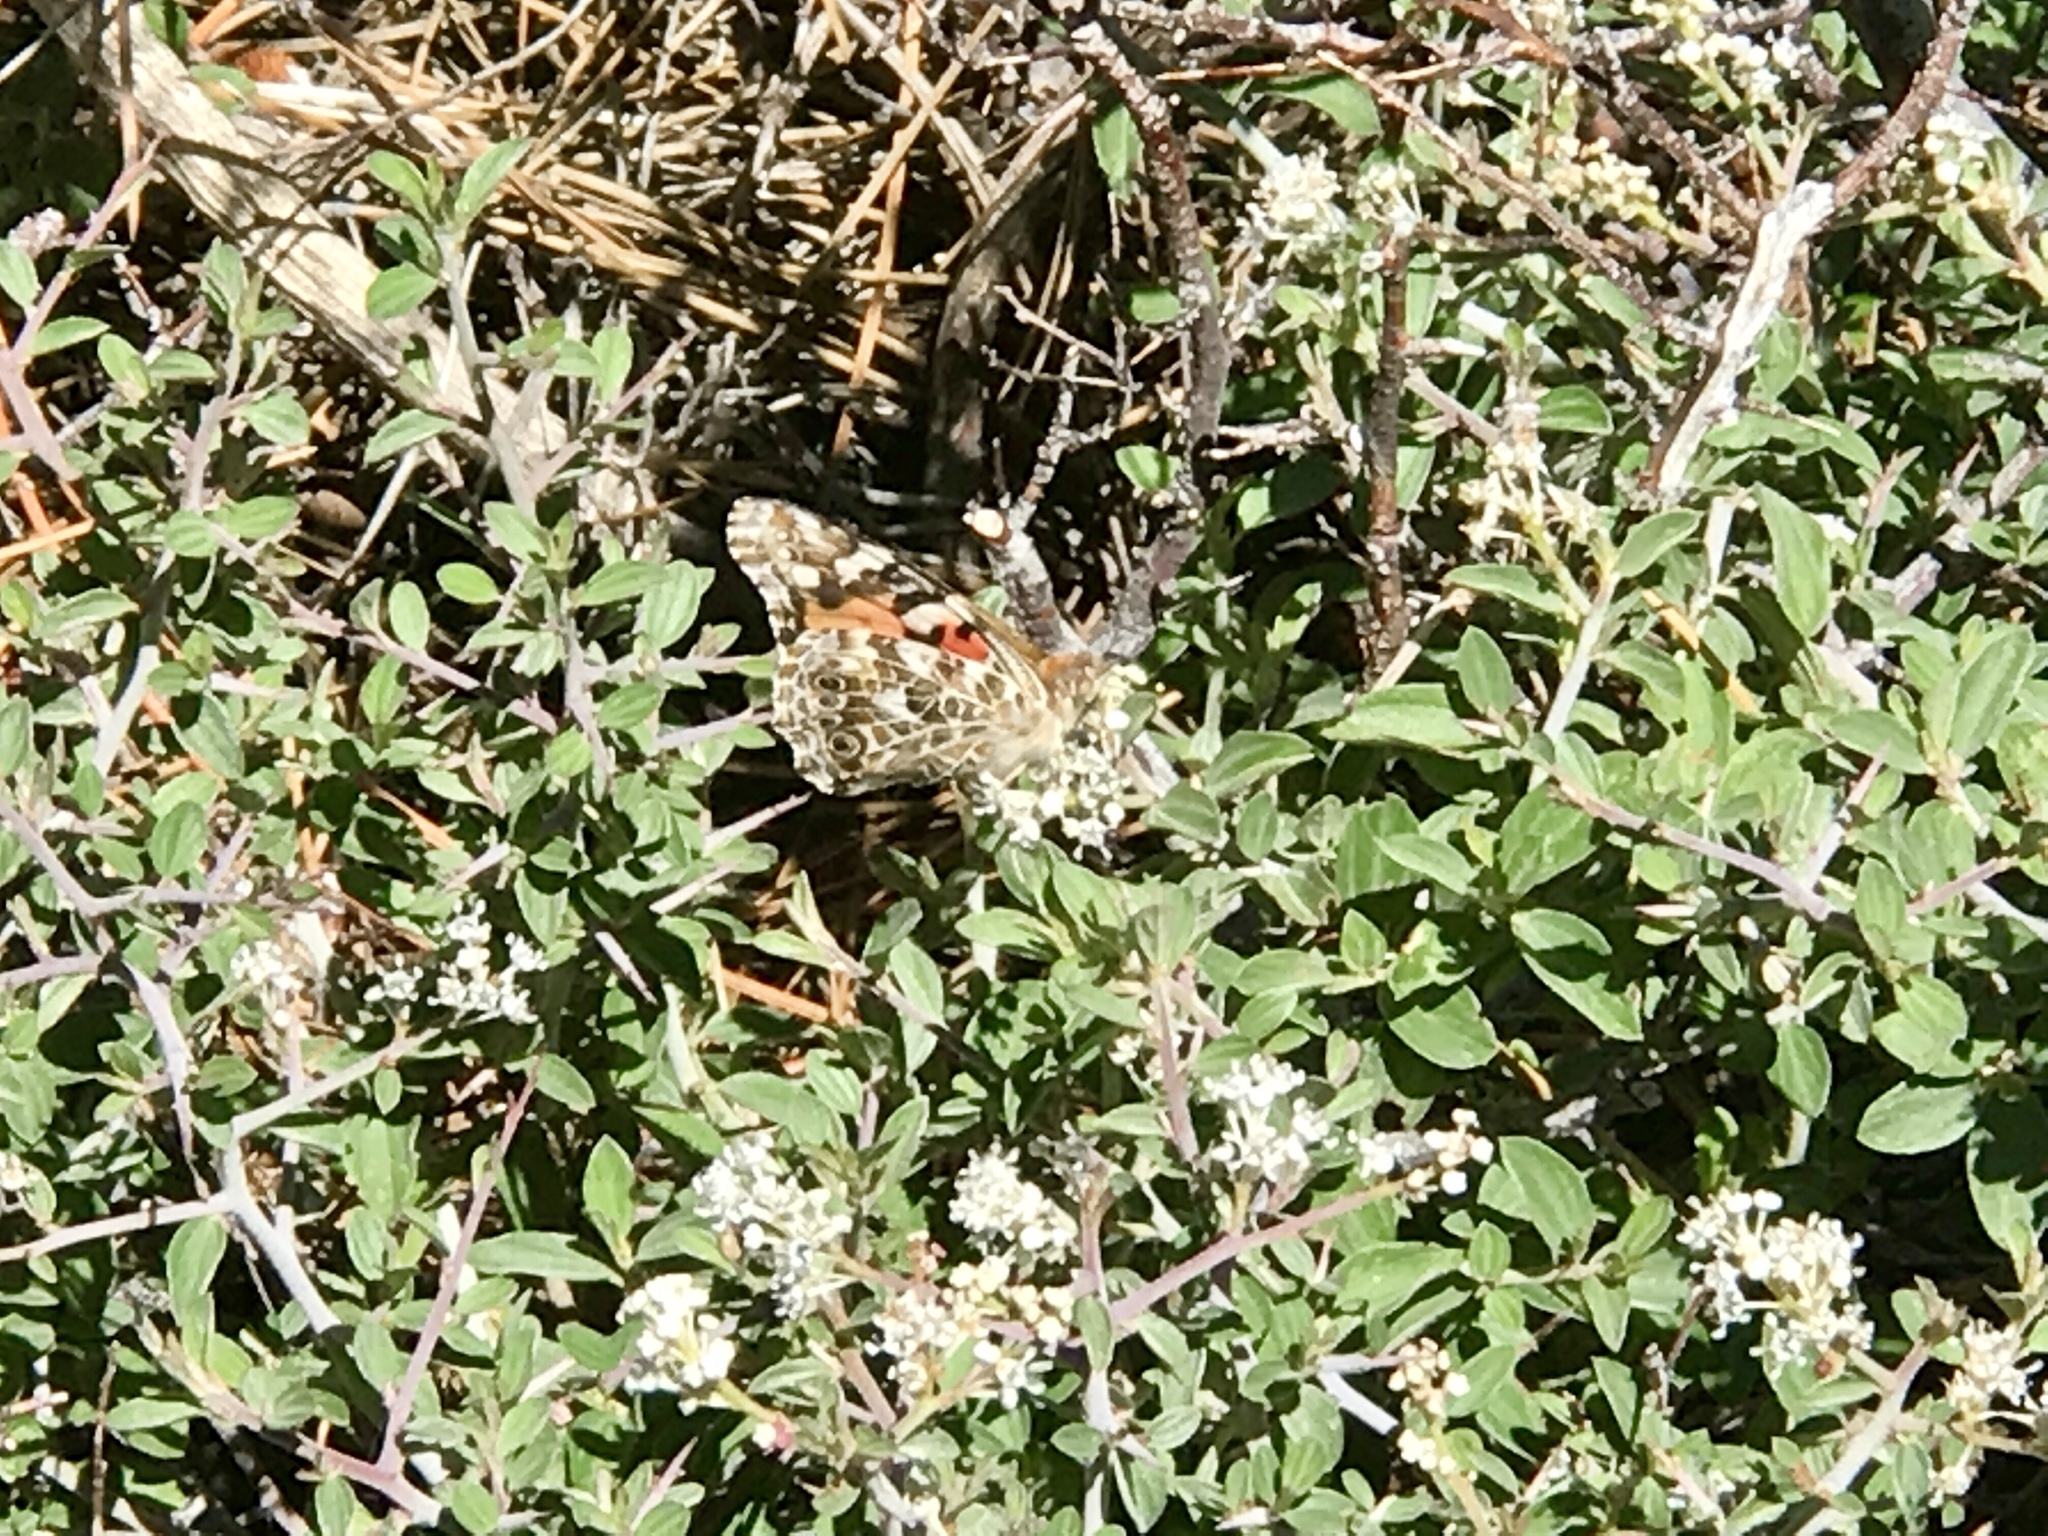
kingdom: Animalia
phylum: Arthropoda
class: Insecta
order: Lepidoptera
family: Nymphalidae
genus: Vanessa
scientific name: Vanessa cardui
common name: Painted lady
